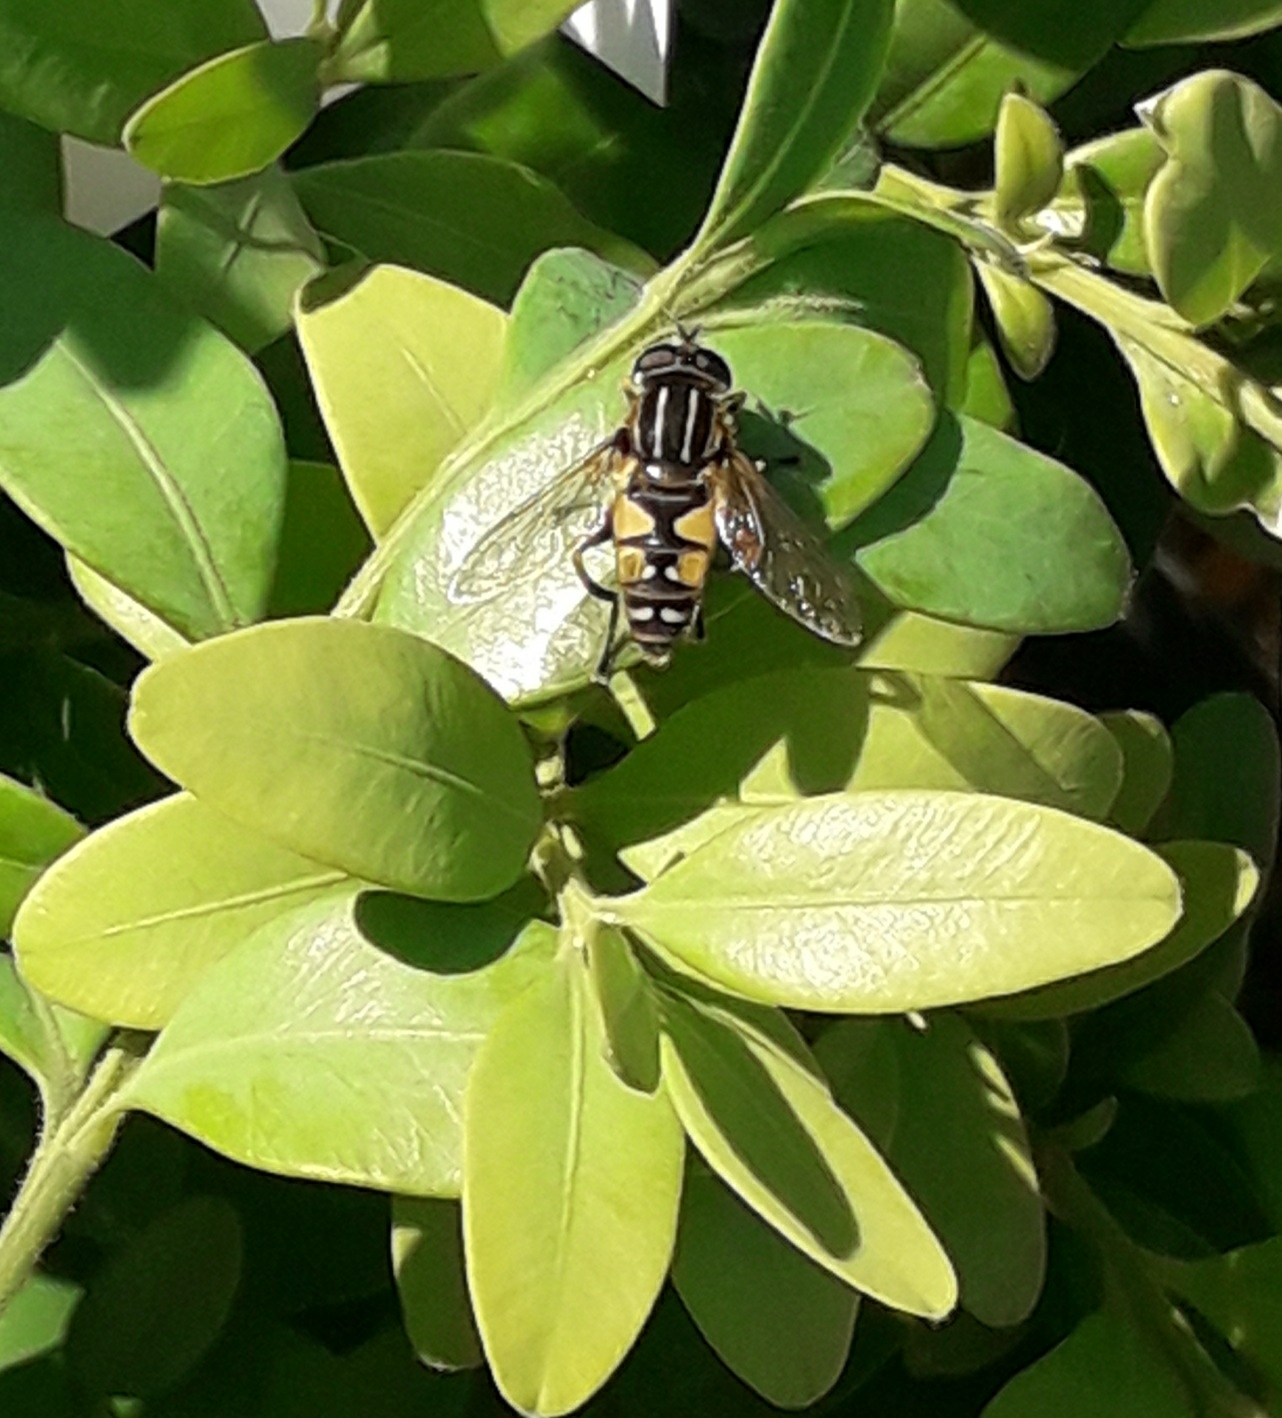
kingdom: Animalia
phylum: Arthropoda
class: Insecta
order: Diptera
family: Syrphidae
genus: Helophilus
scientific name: Helophilus pendulus
